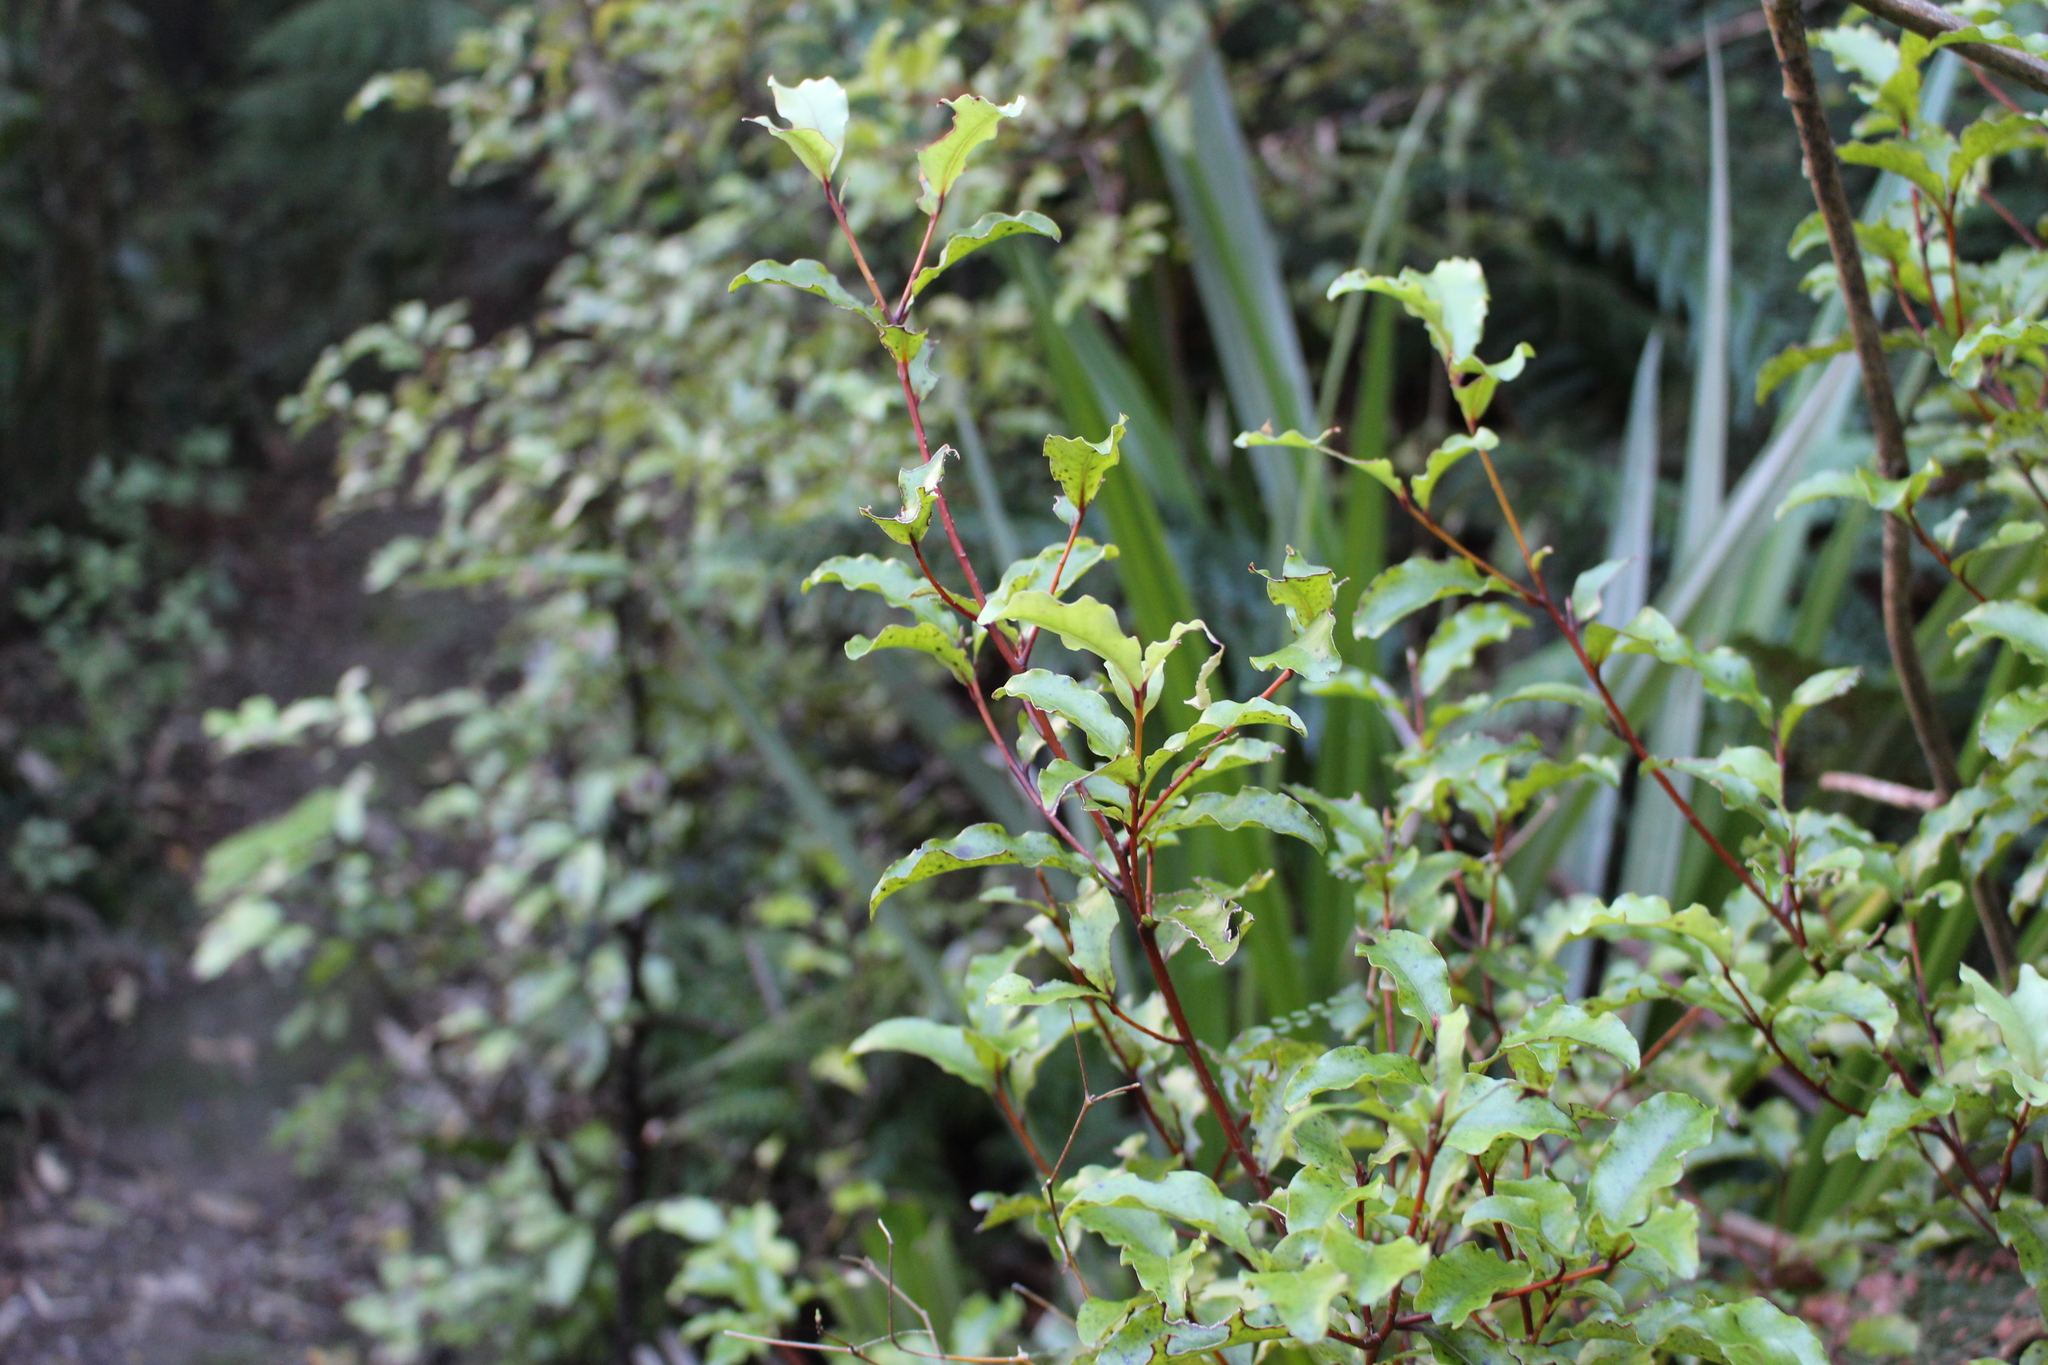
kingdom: Plantae
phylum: Tracheophyta
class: Magnoliopsida
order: Ericales
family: Primulaceae
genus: Myrsine
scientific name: Myrsine australis
